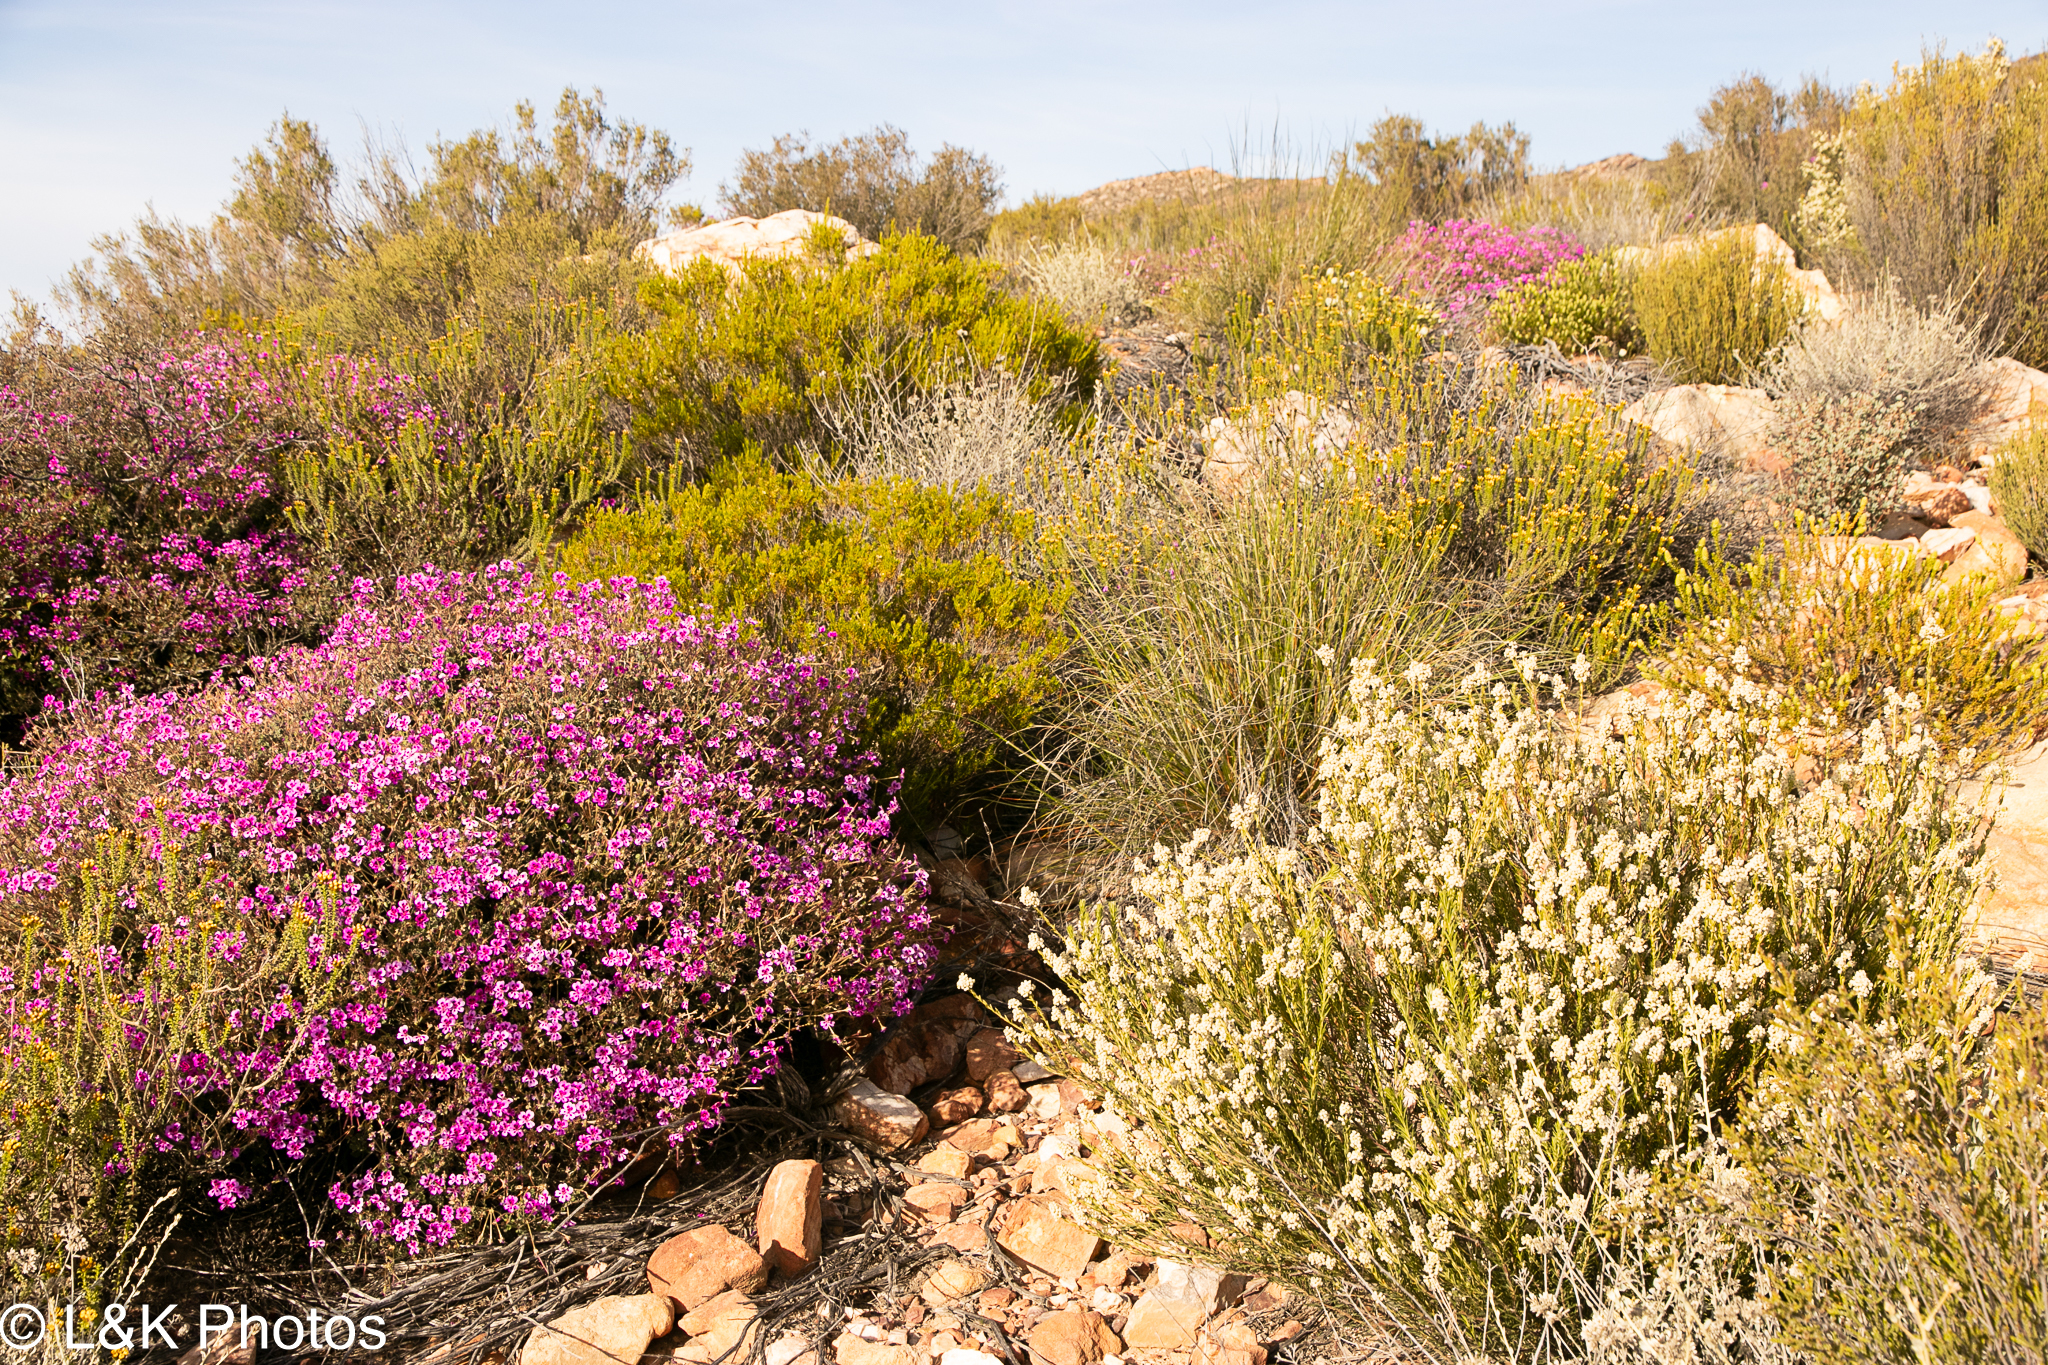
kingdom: Plantae
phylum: Tracheophyta
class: Magnoliopsida
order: Geraniales
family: Geraniaceae
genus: Pelargonium
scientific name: Pelargonium magenteum
